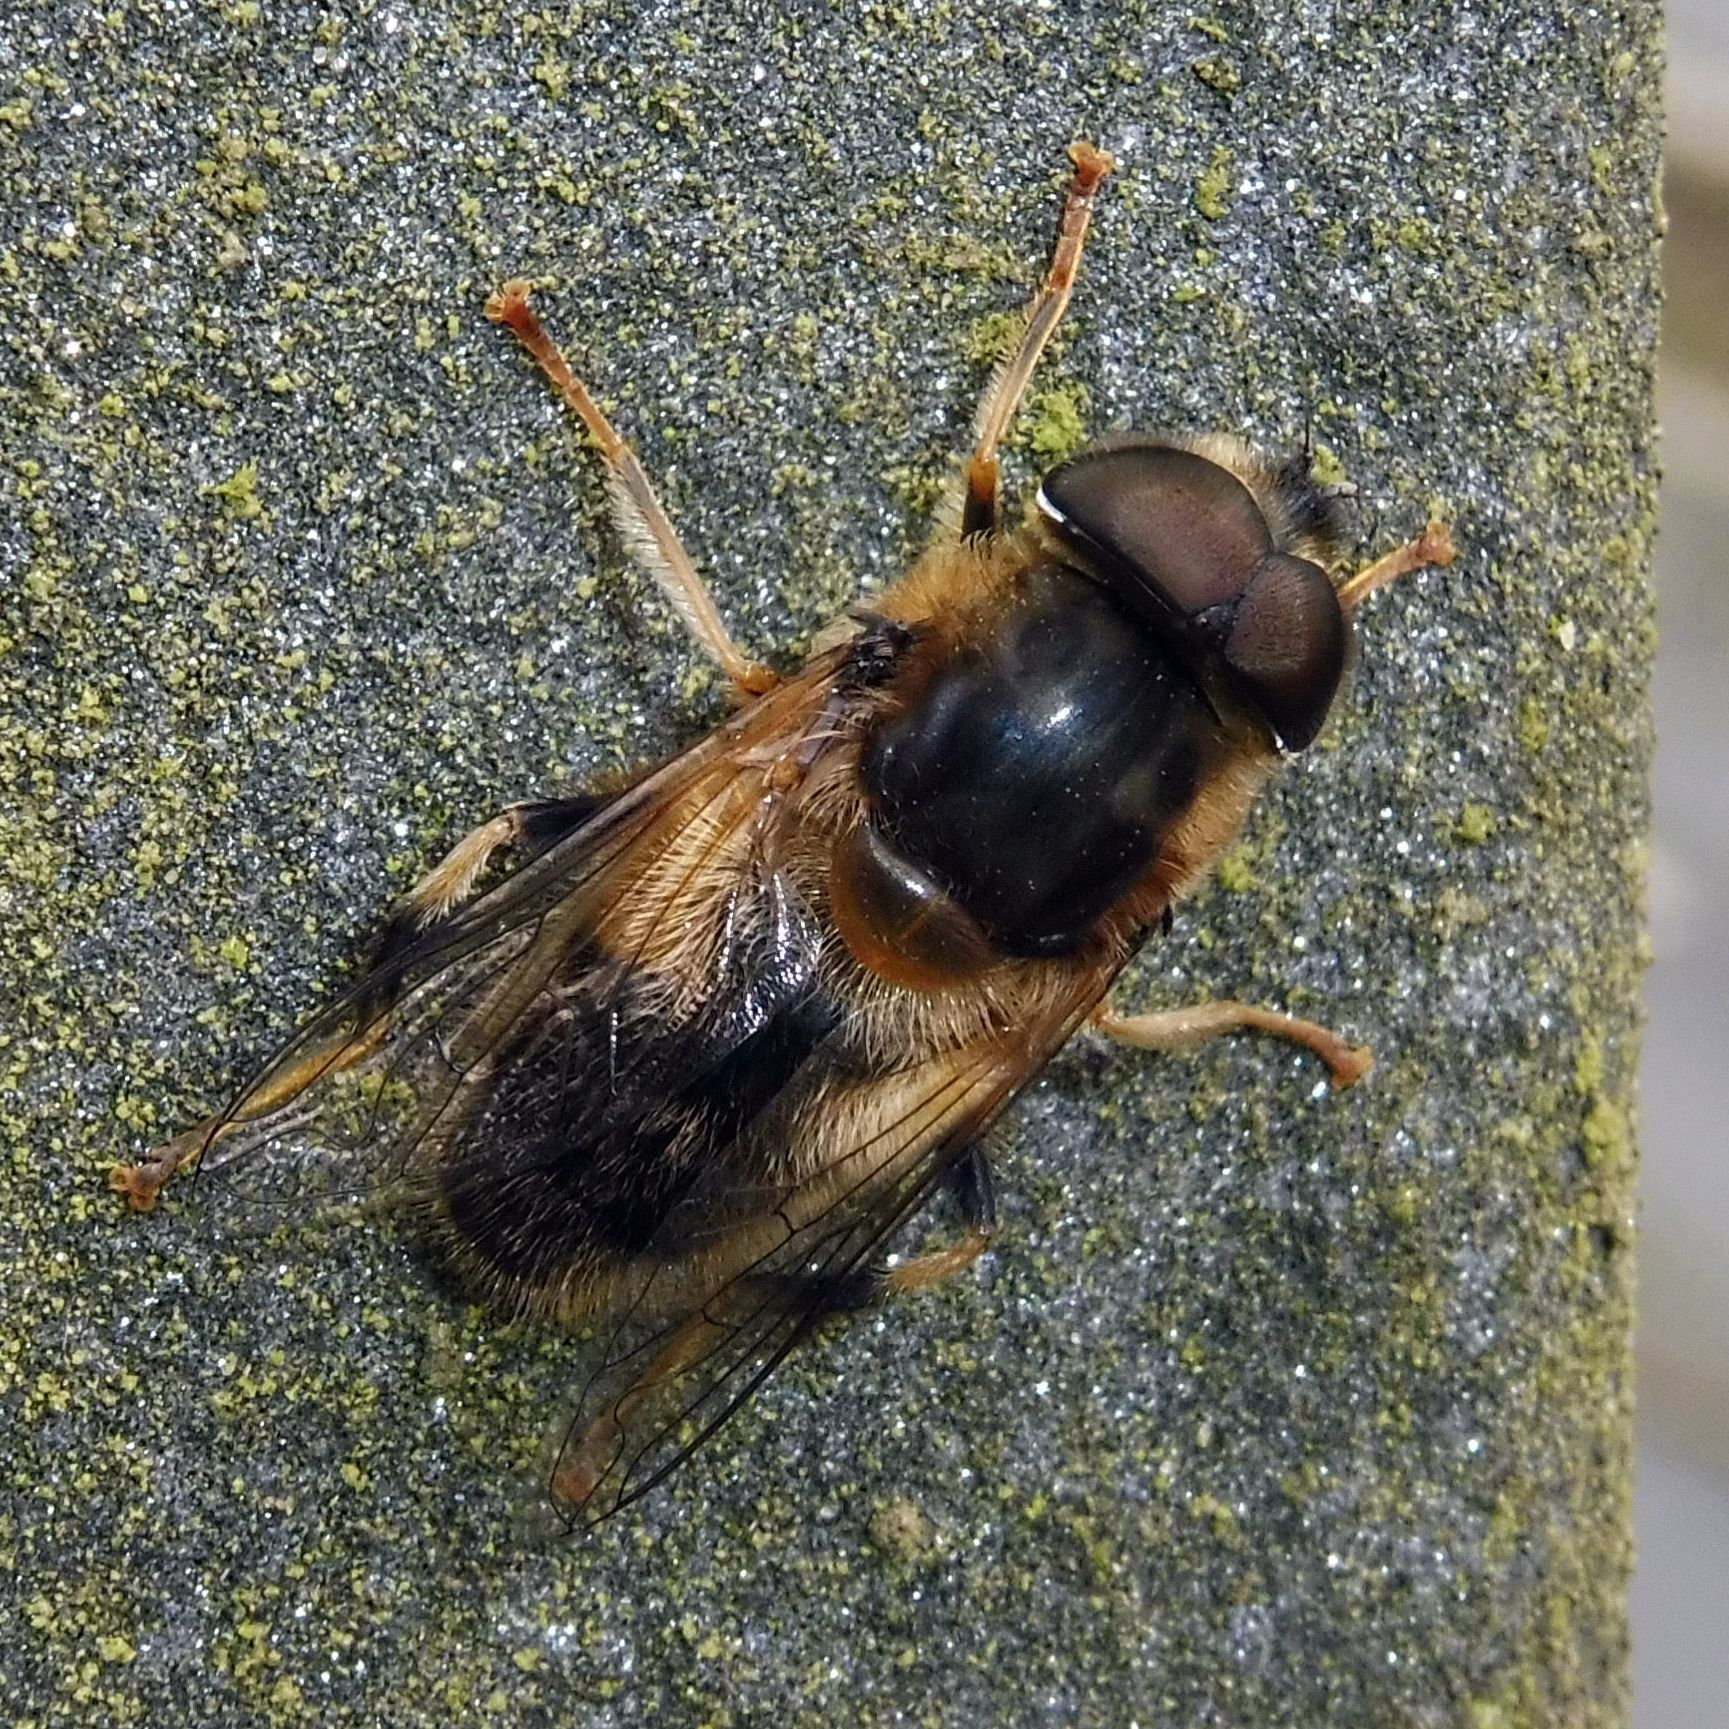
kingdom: Animalia
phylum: Arthropoda
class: Insecta
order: Diptera
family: Syrphidae
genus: Eristalis
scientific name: Eristalis pertinax
